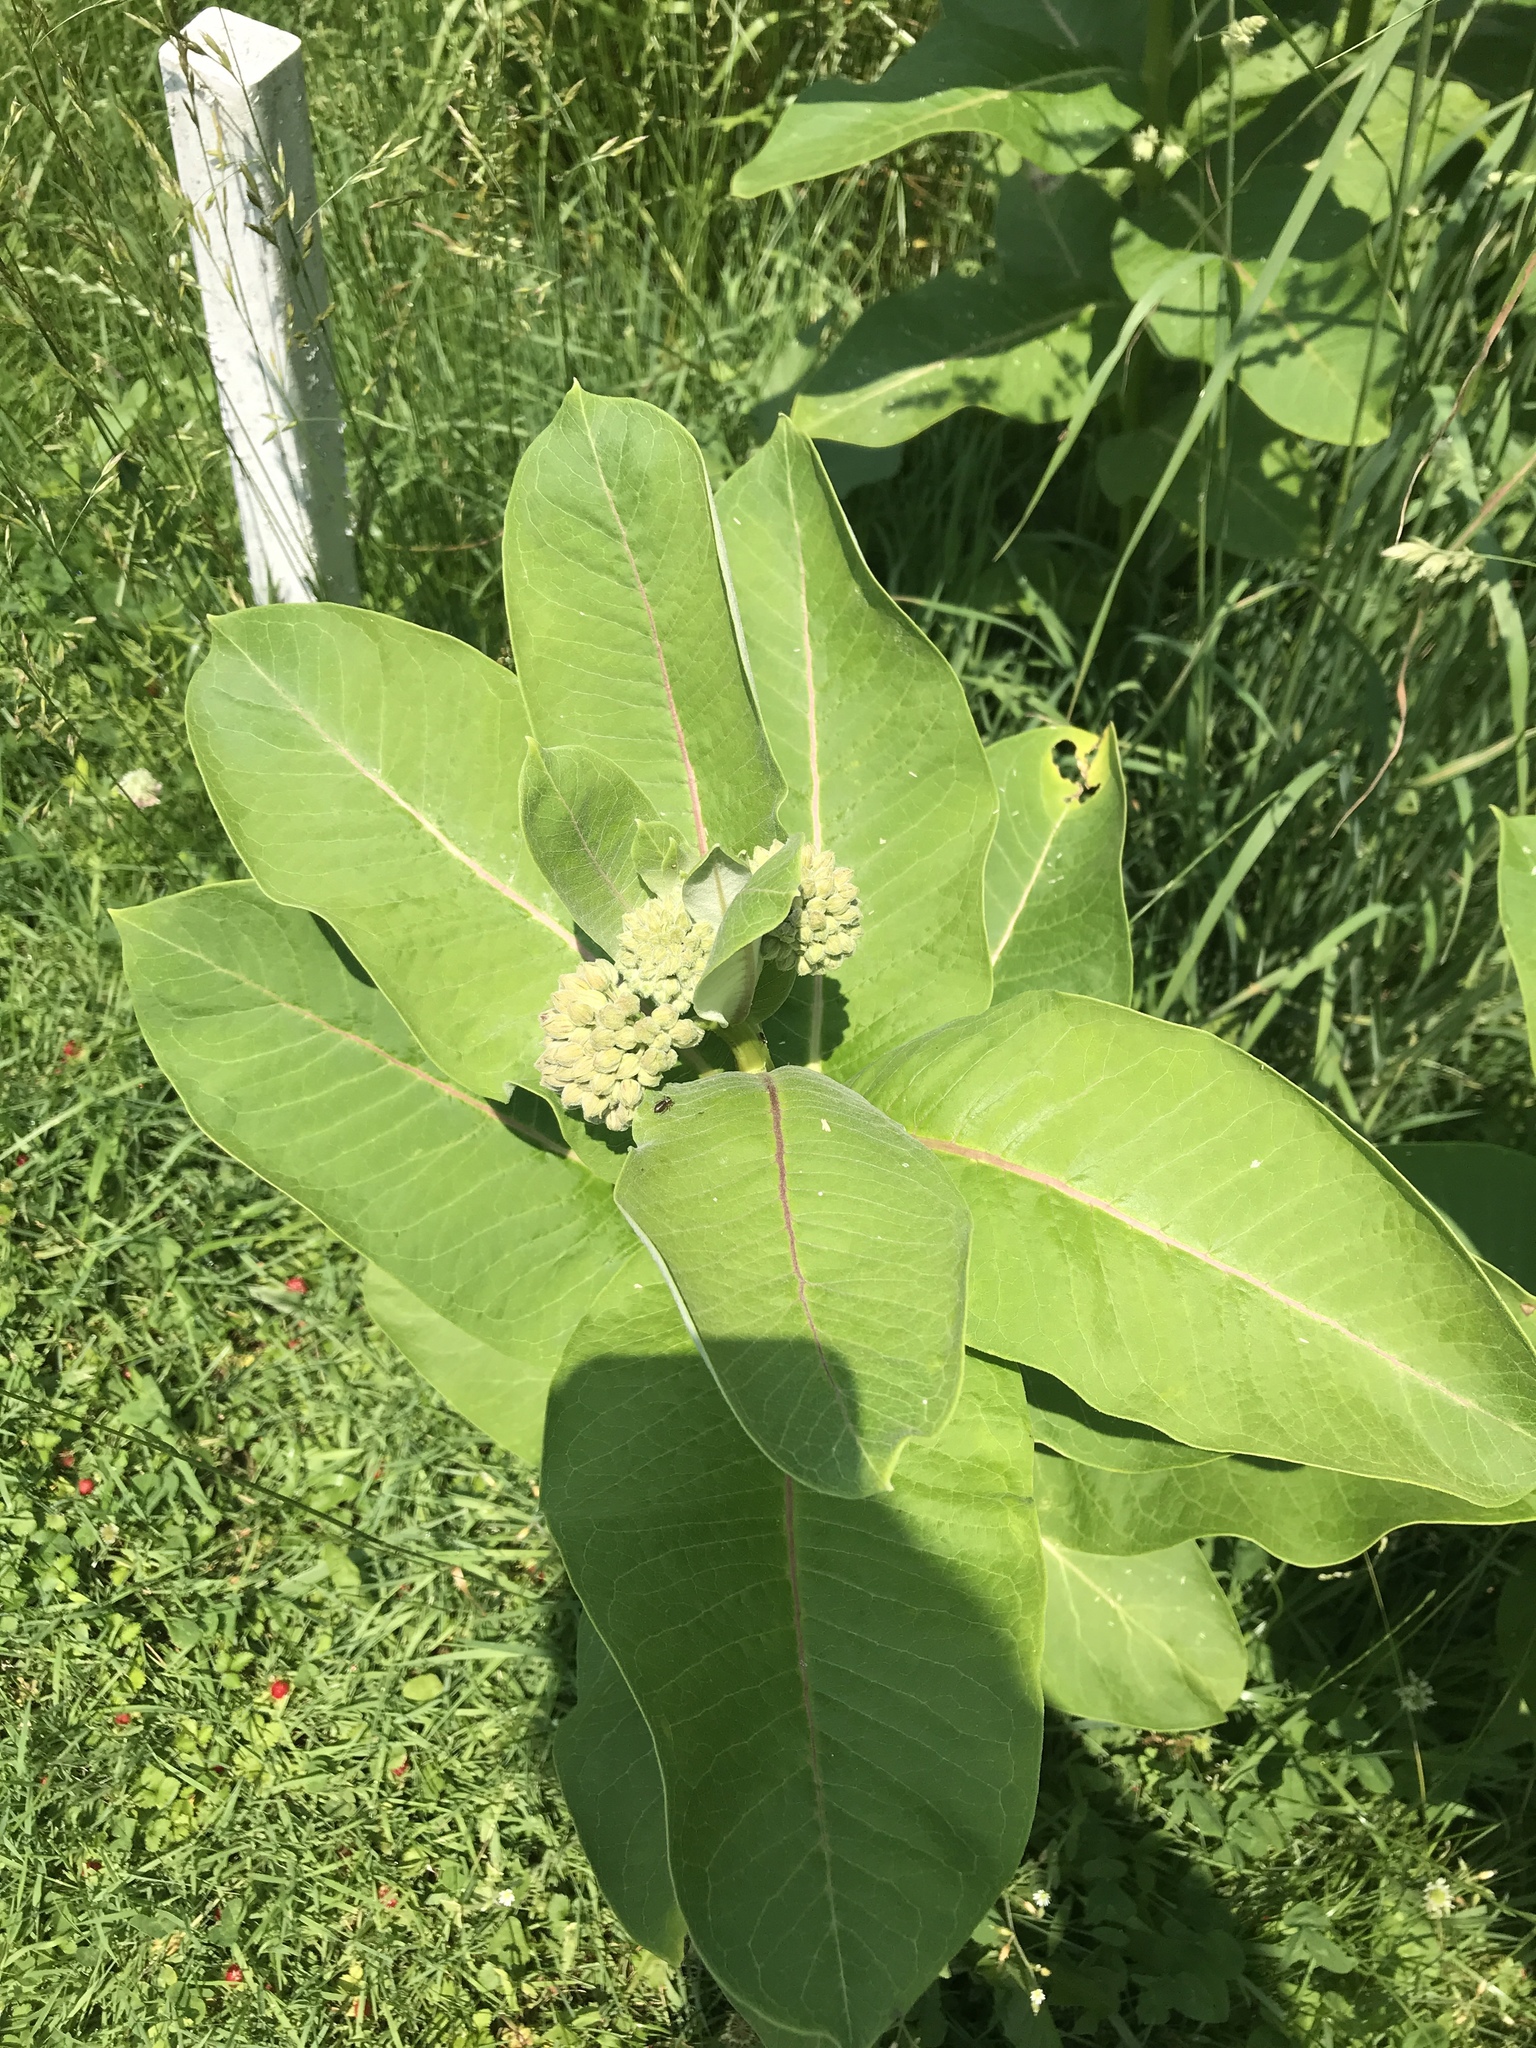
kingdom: Plantae
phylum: Tracheophyta
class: Magnoliopsida
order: Gentianales
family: Apocynaceae
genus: Asclepias
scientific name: Asclepias syriaca
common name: Common milkweed
